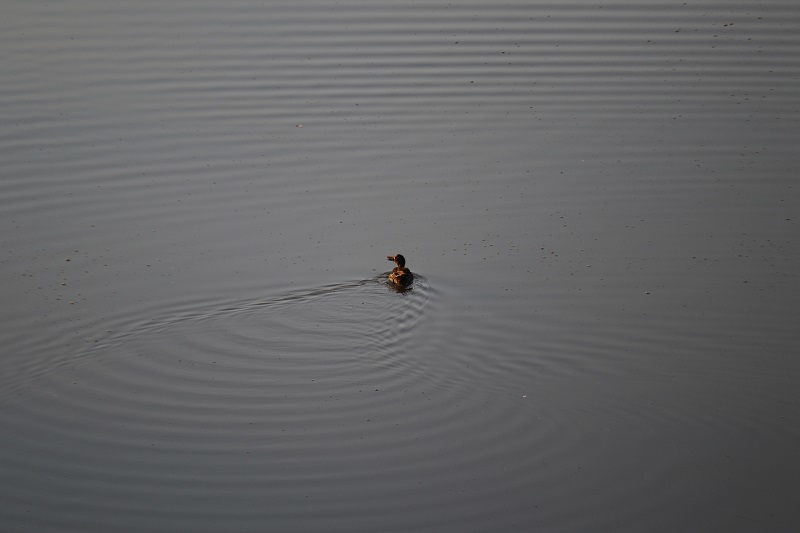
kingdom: Animalia
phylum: Chordata
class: Aves
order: Anseriformes
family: Anatidae
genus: Anas
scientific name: Anas undulata
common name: Yellow-billed duck
